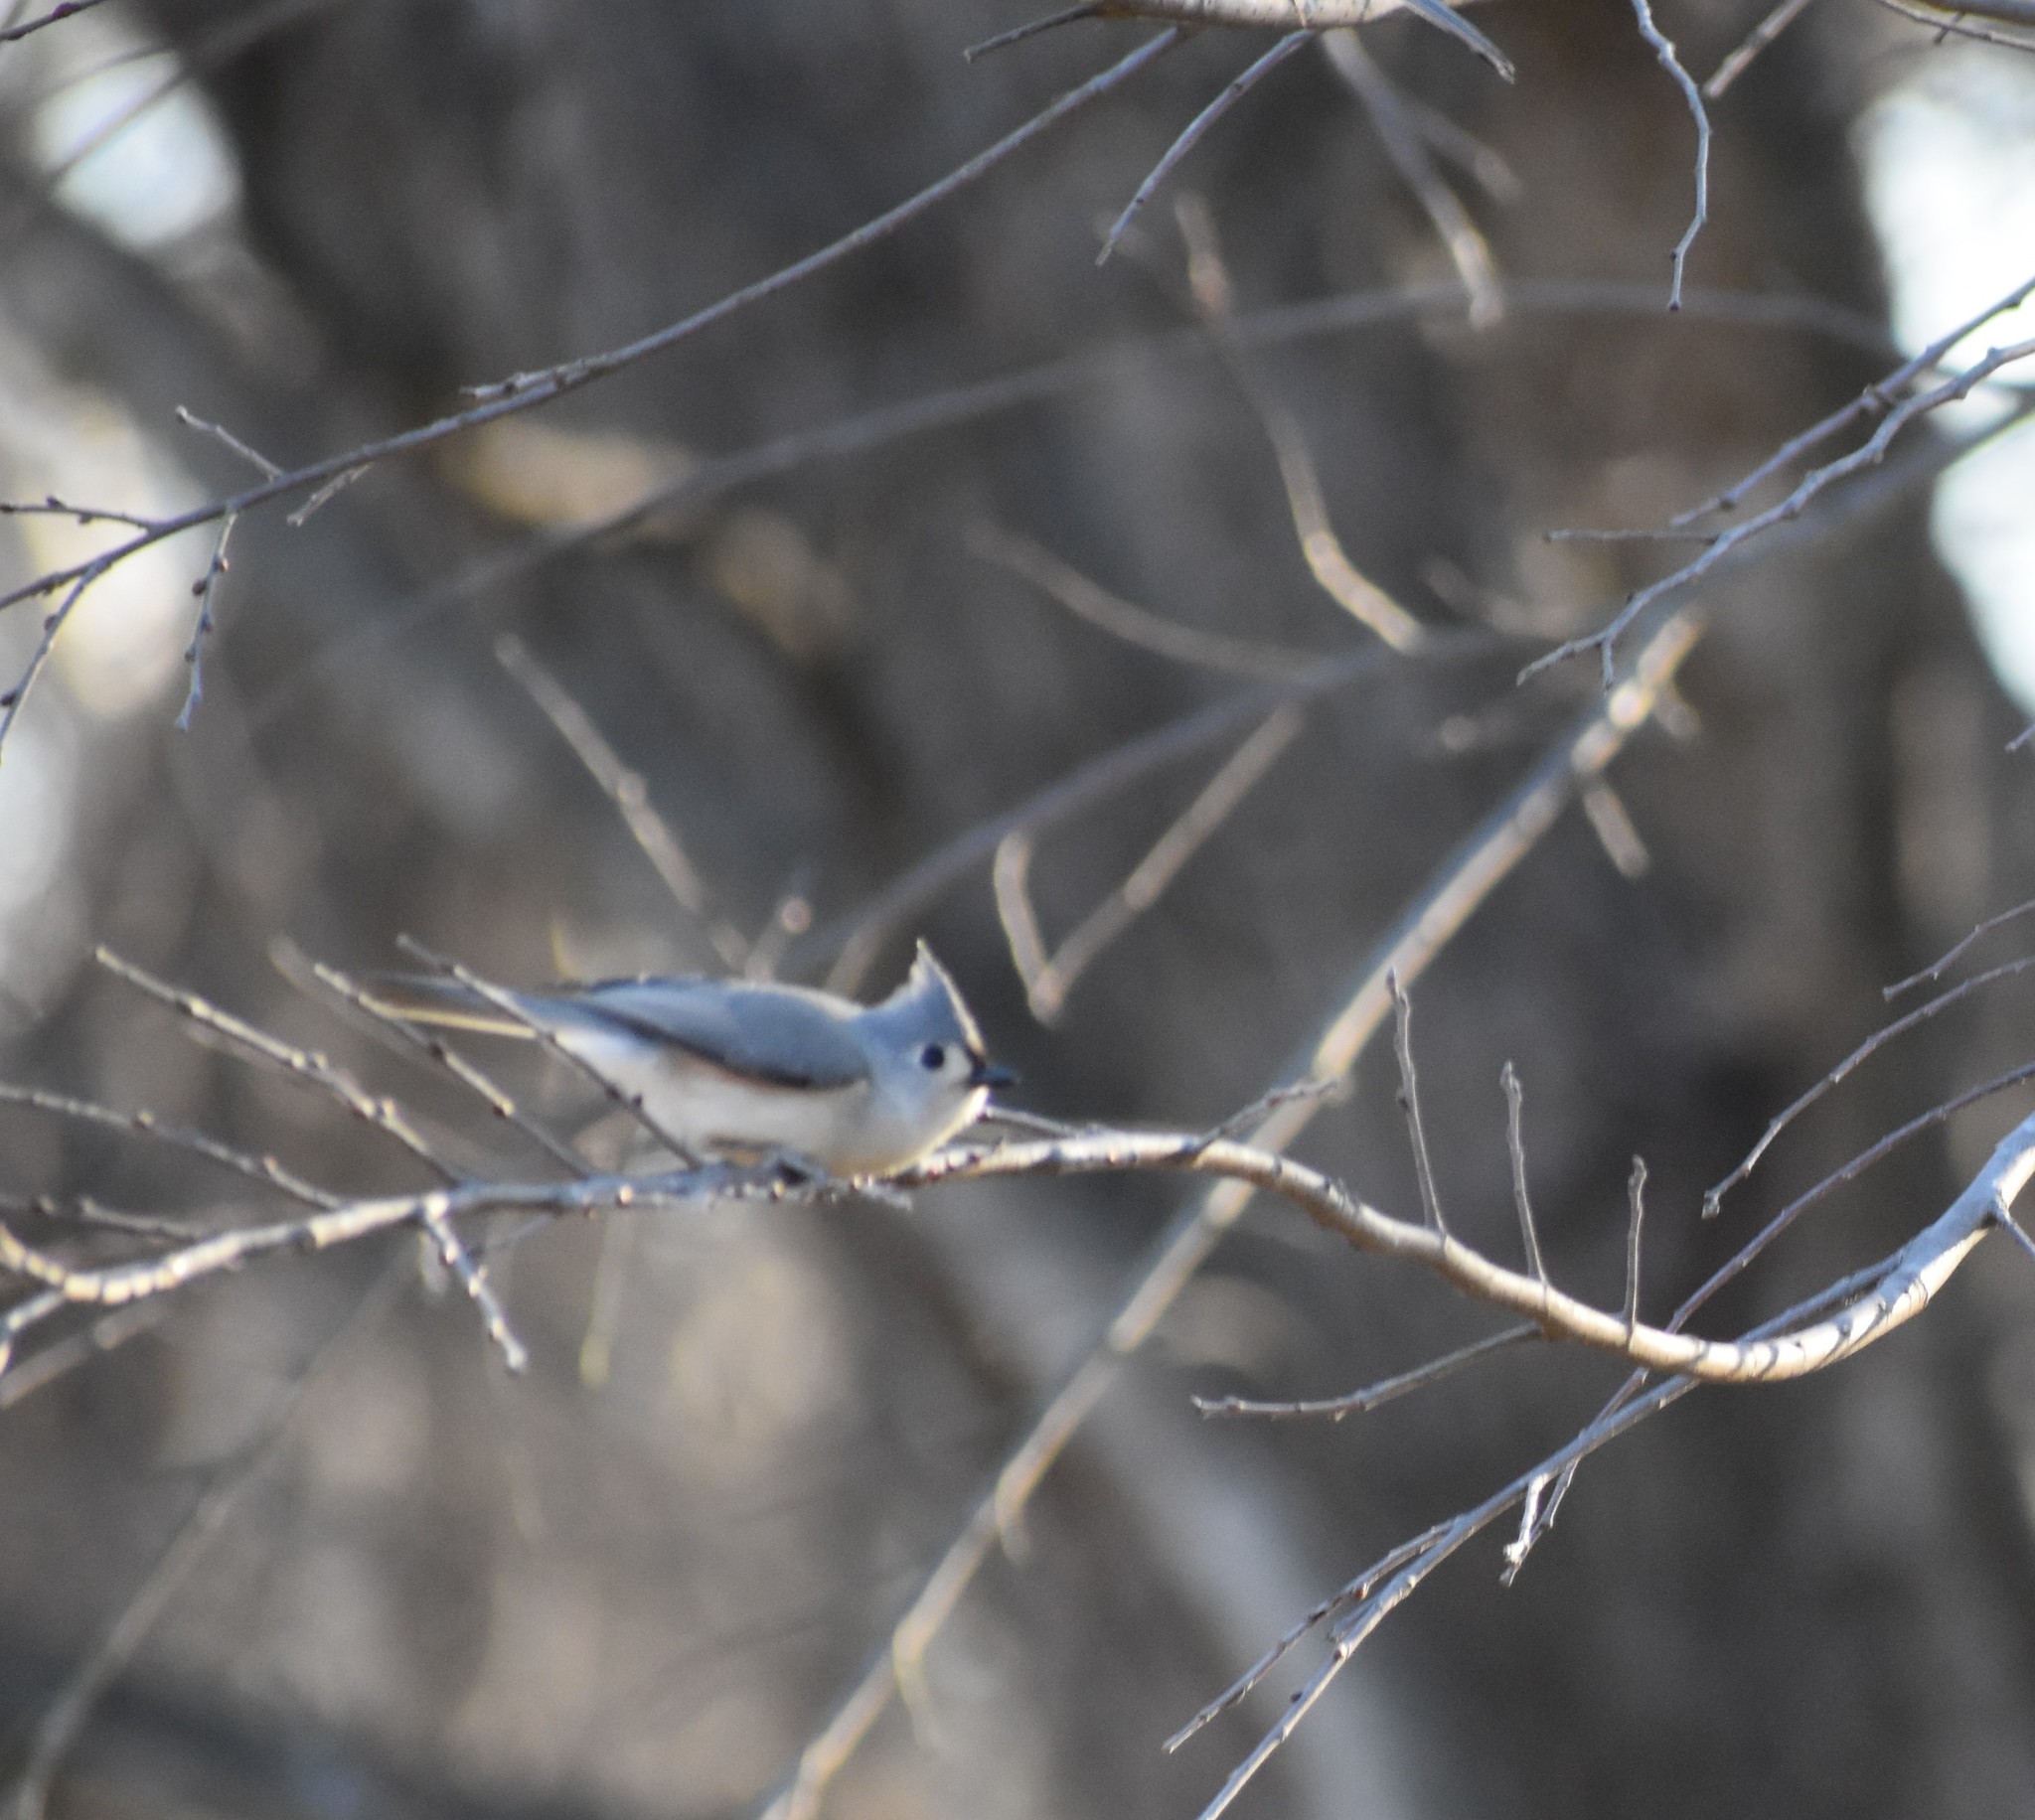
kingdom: Animalia
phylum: Chordata
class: Aves
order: Passeriformes
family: Paridae
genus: Baeolophus
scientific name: Baeolophus bicolor
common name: Tufted titmouse
